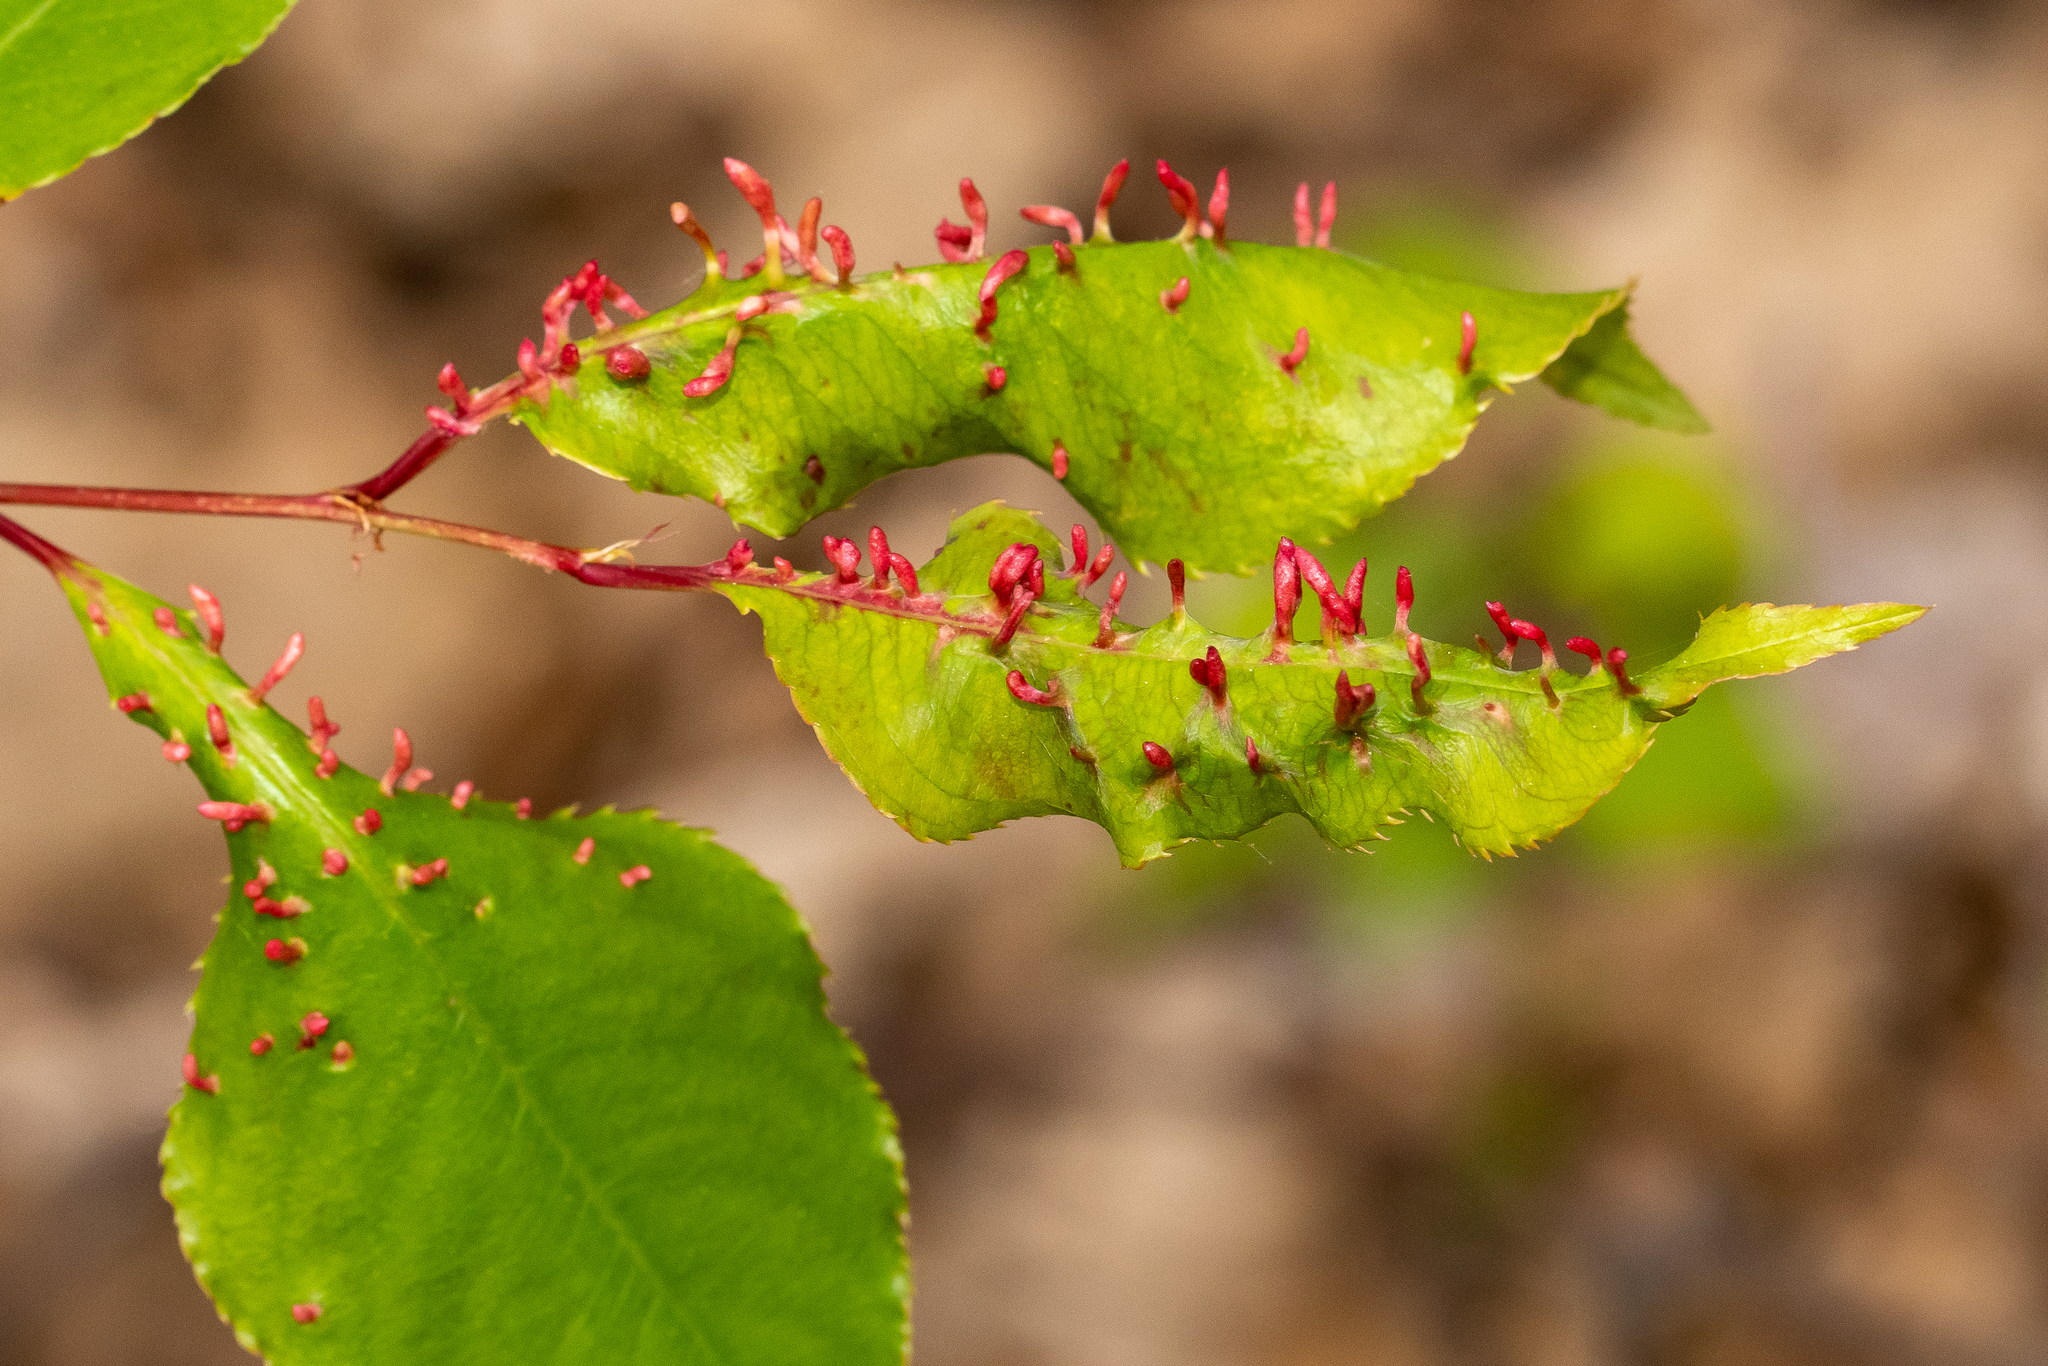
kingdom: Animalia
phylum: Arthropoda
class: Arachnida
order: Trombidiformes
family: Eriophyidae
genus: Eriophyes
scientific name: Eriophyes
